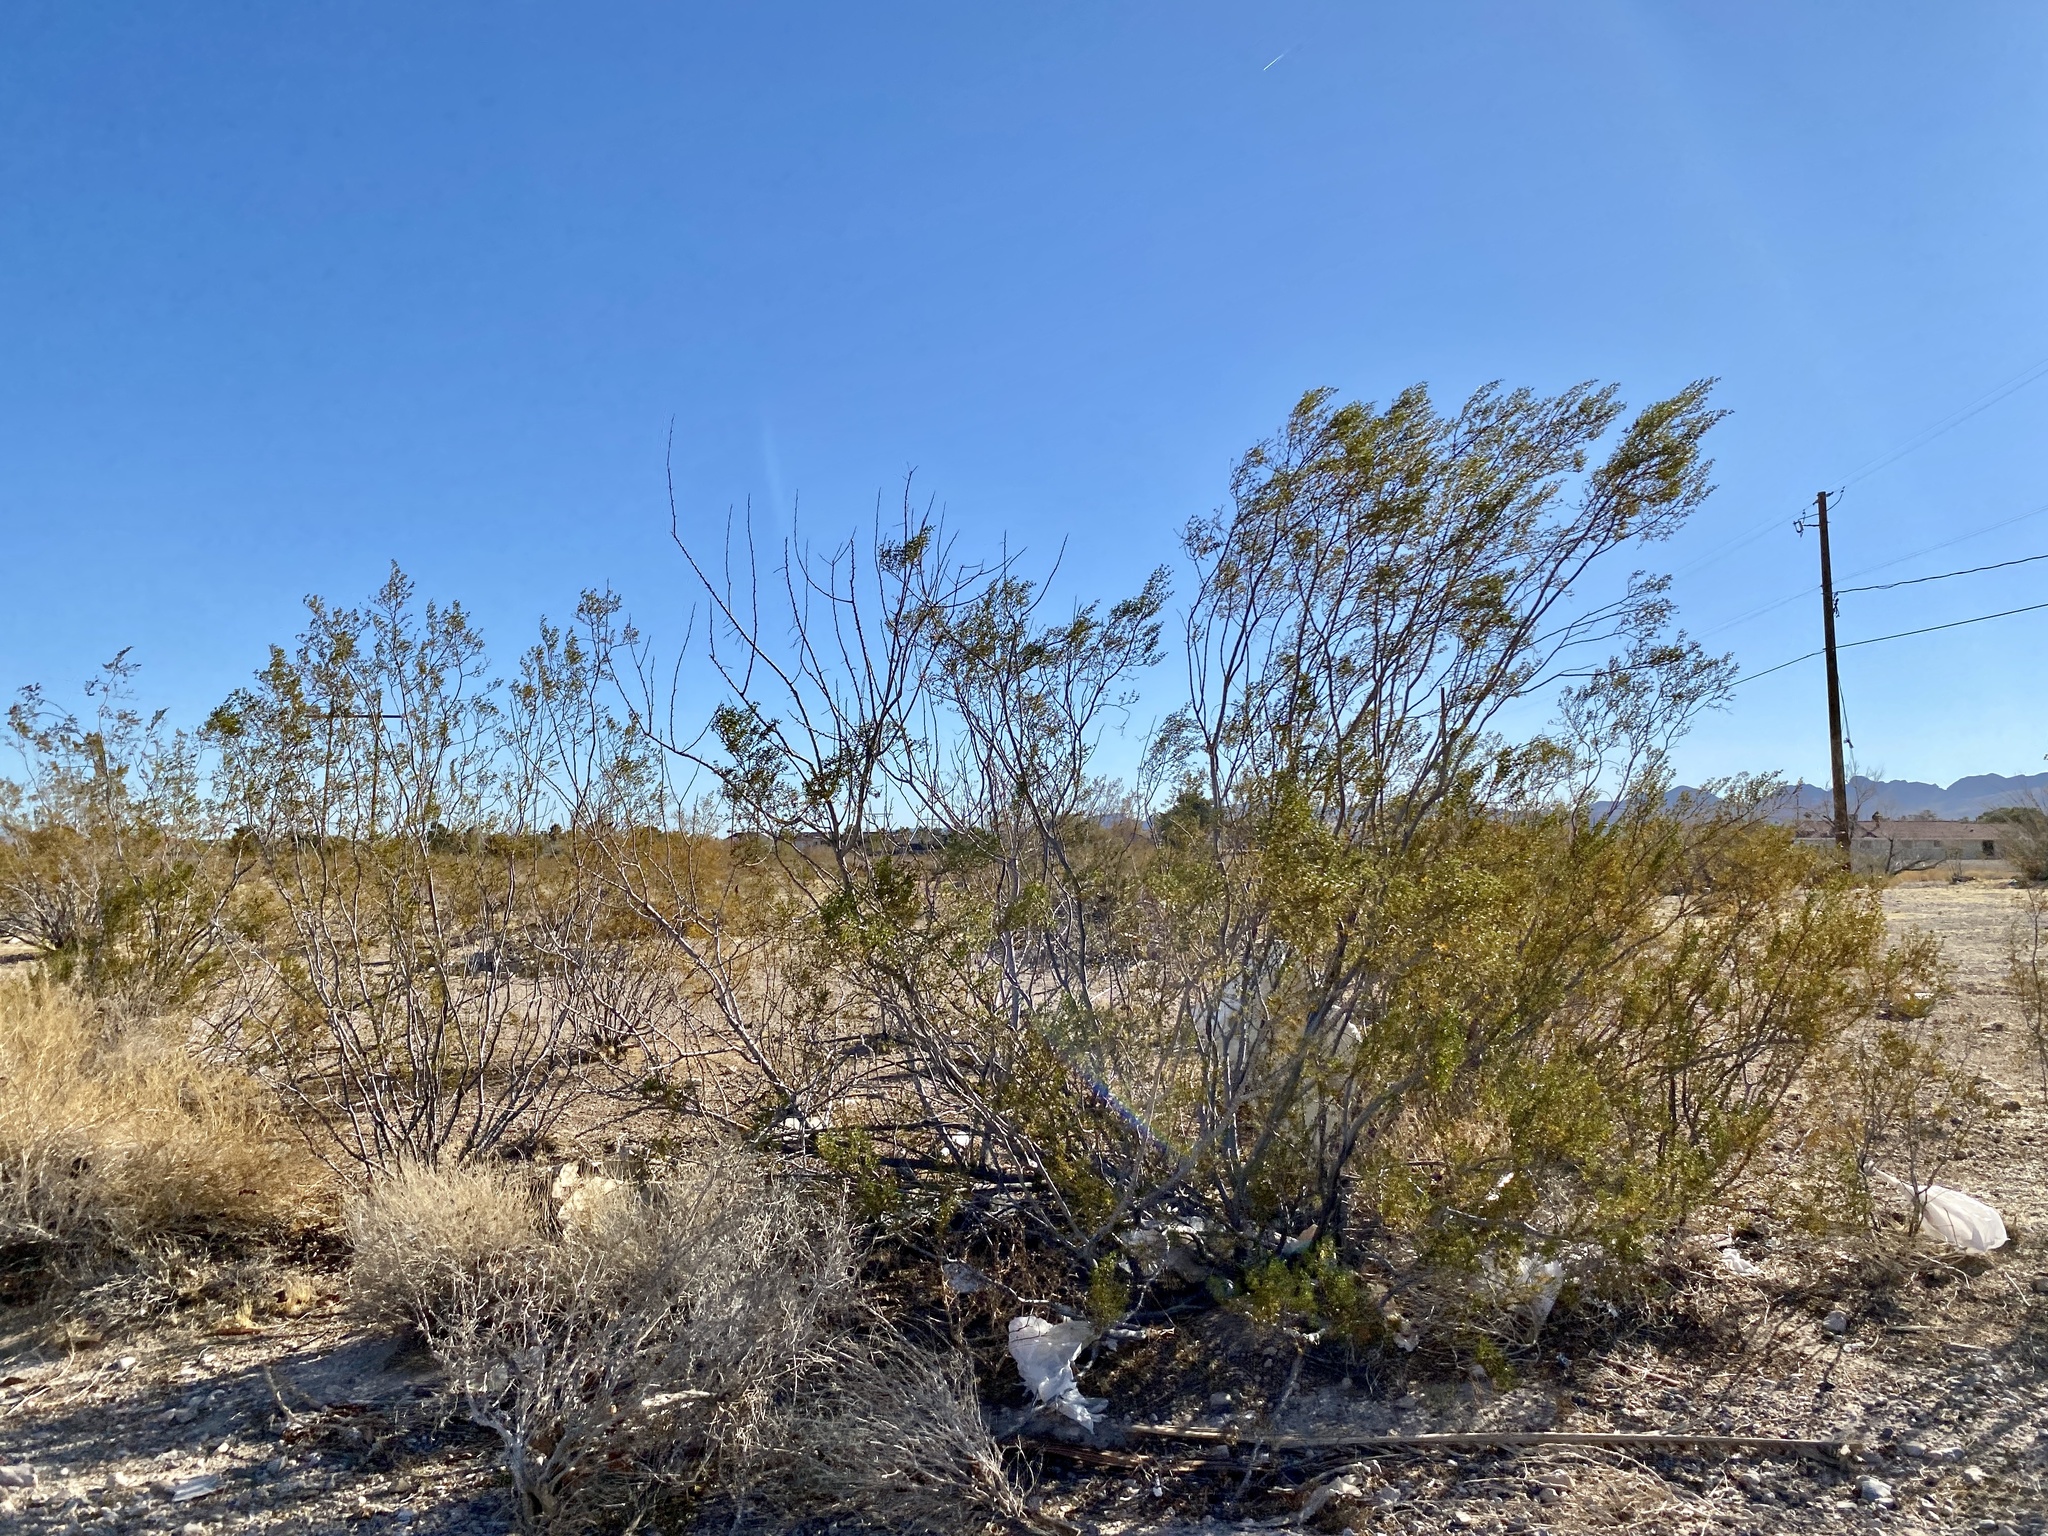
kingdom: Plantae
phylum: Tracheophyta
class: Magnoliopsida
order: Zygophyllales
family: Zygophyllaceae
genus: Larrea
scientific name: Larrea tridentata
